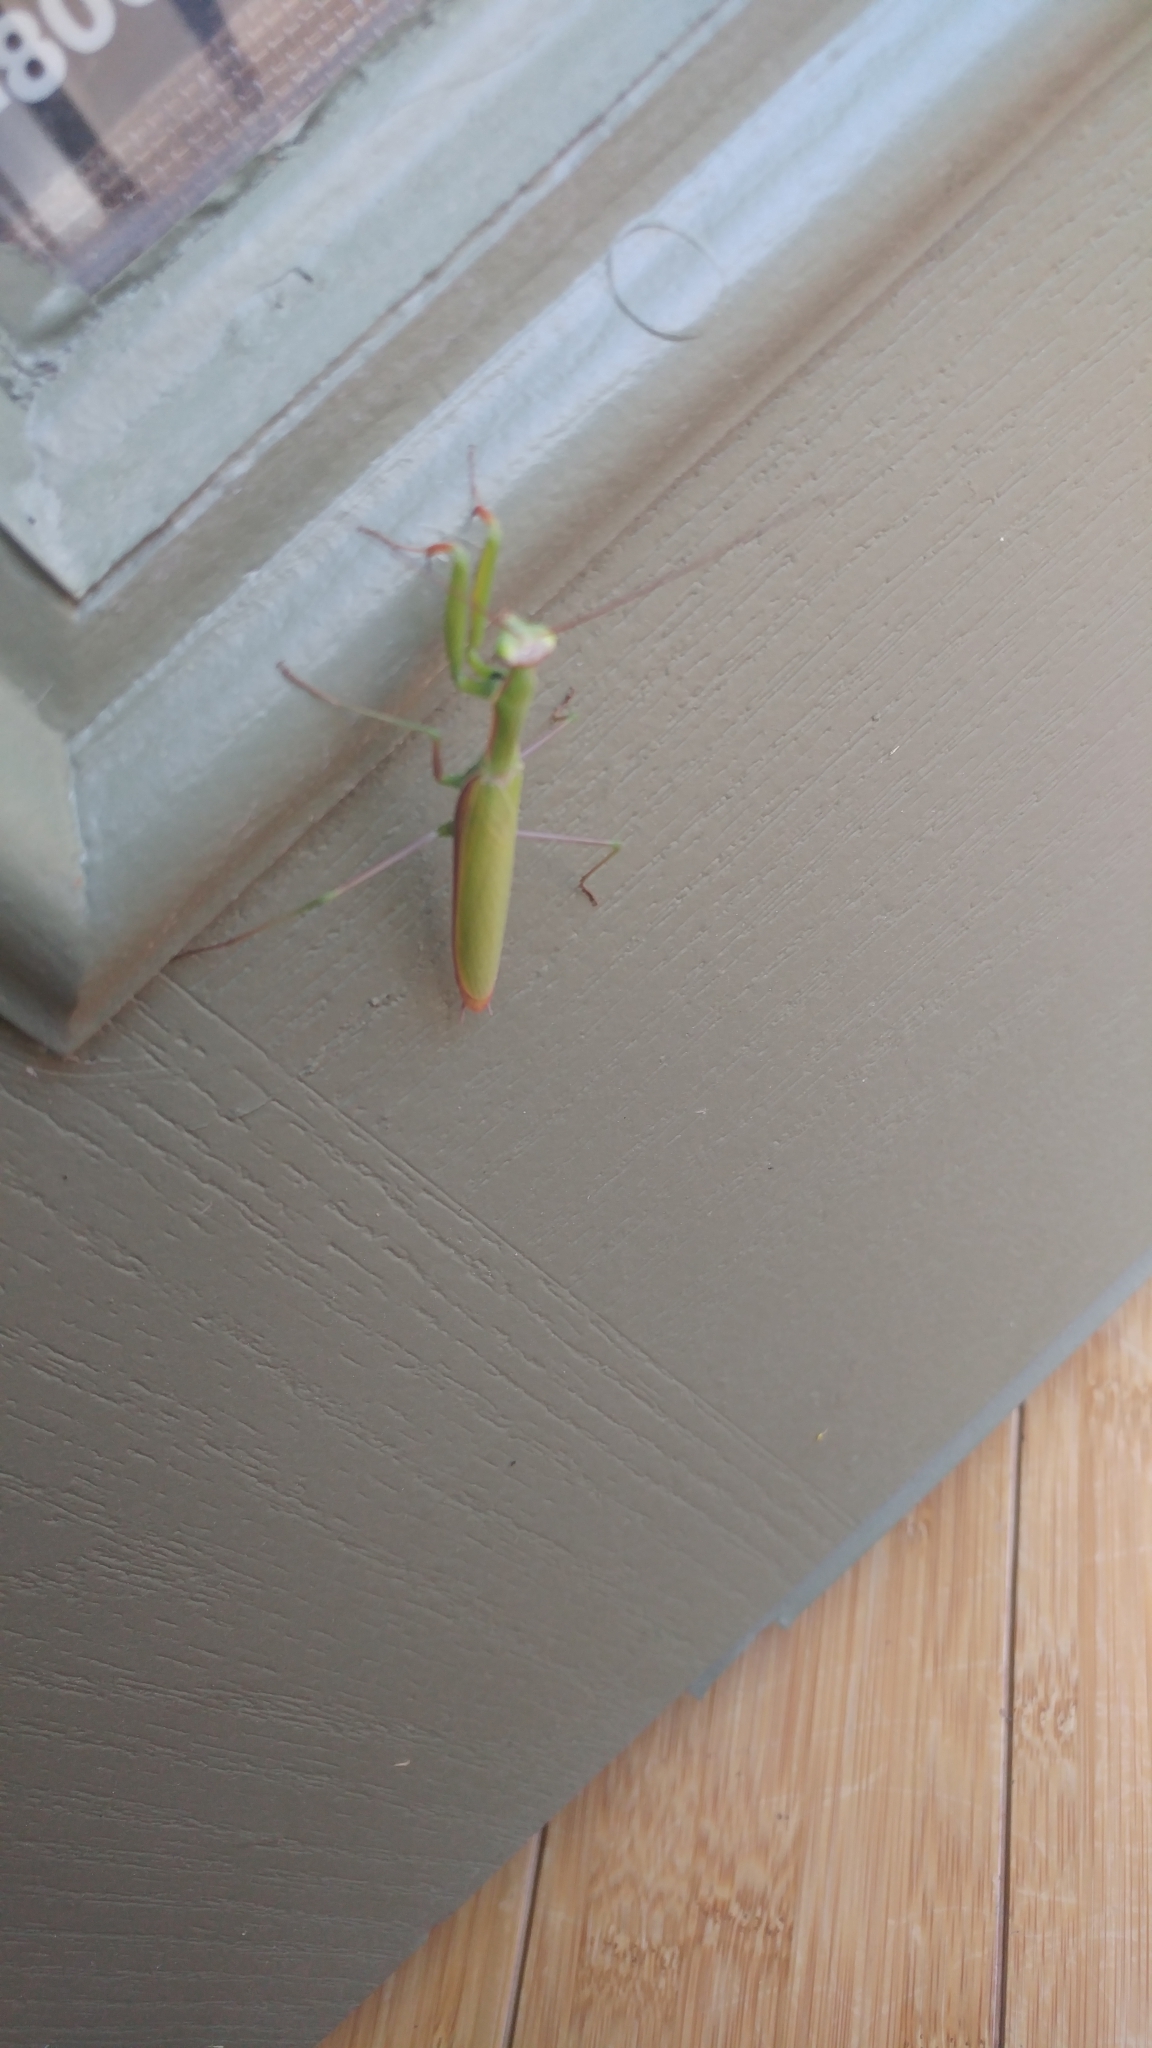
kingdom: Animalia
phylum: Arthropoda
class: Insecta
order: Mantodea
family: Mantidae
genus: Mantis
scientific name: Mantis religiosa
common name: Praying mantis
